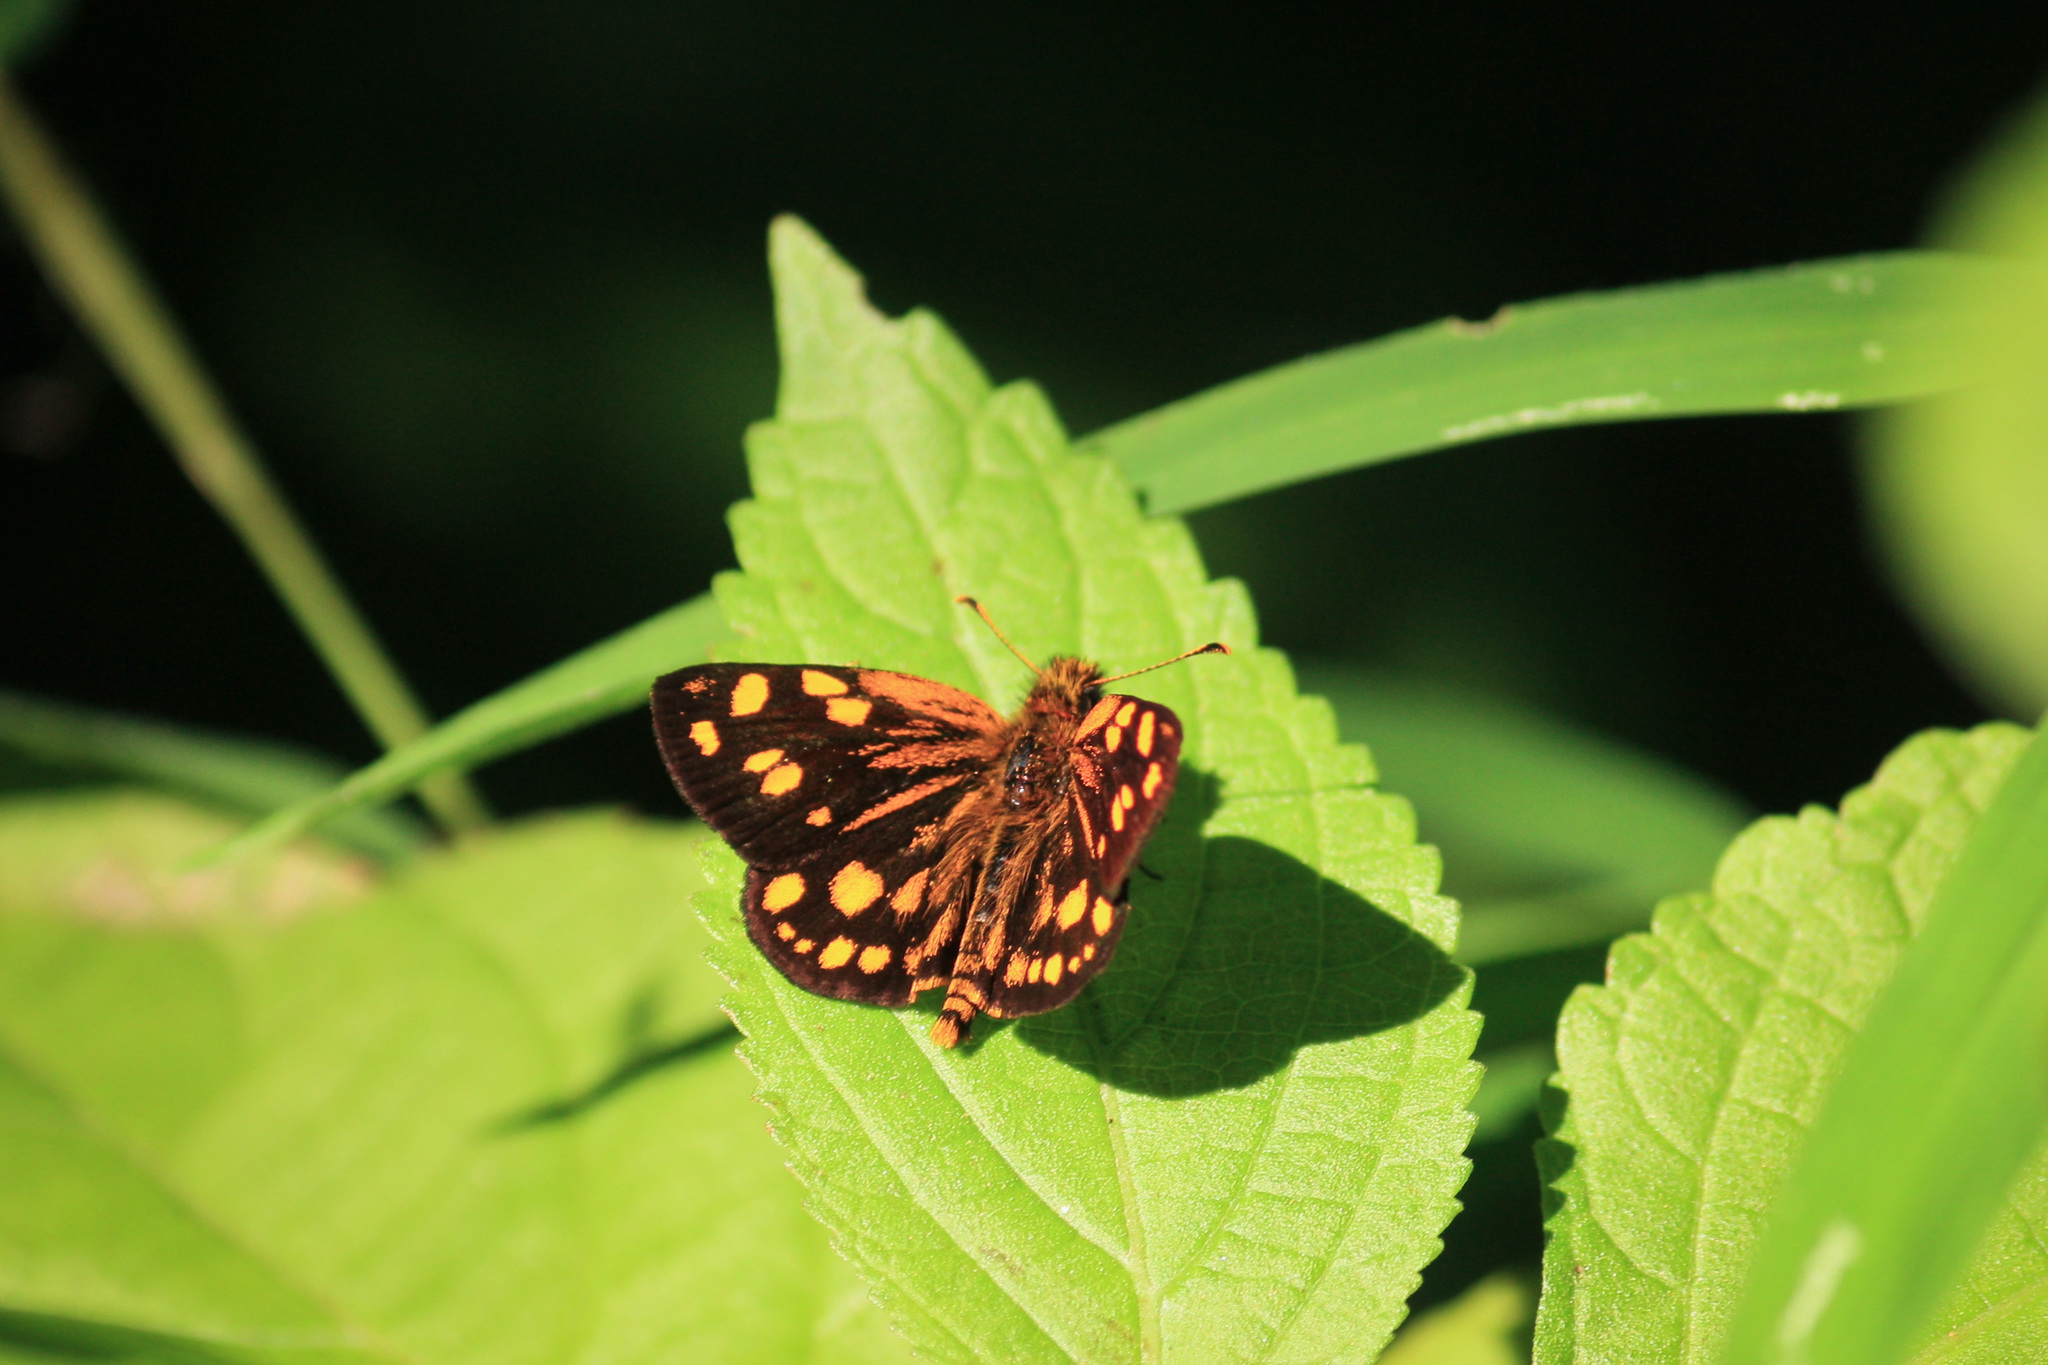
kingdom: Animalia
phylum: Arthropoda
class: Insecta
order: Lepidoptera
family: Hesperiidae
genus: Metisella
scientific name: Metisella metis
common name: Western gold-spotted sylph
